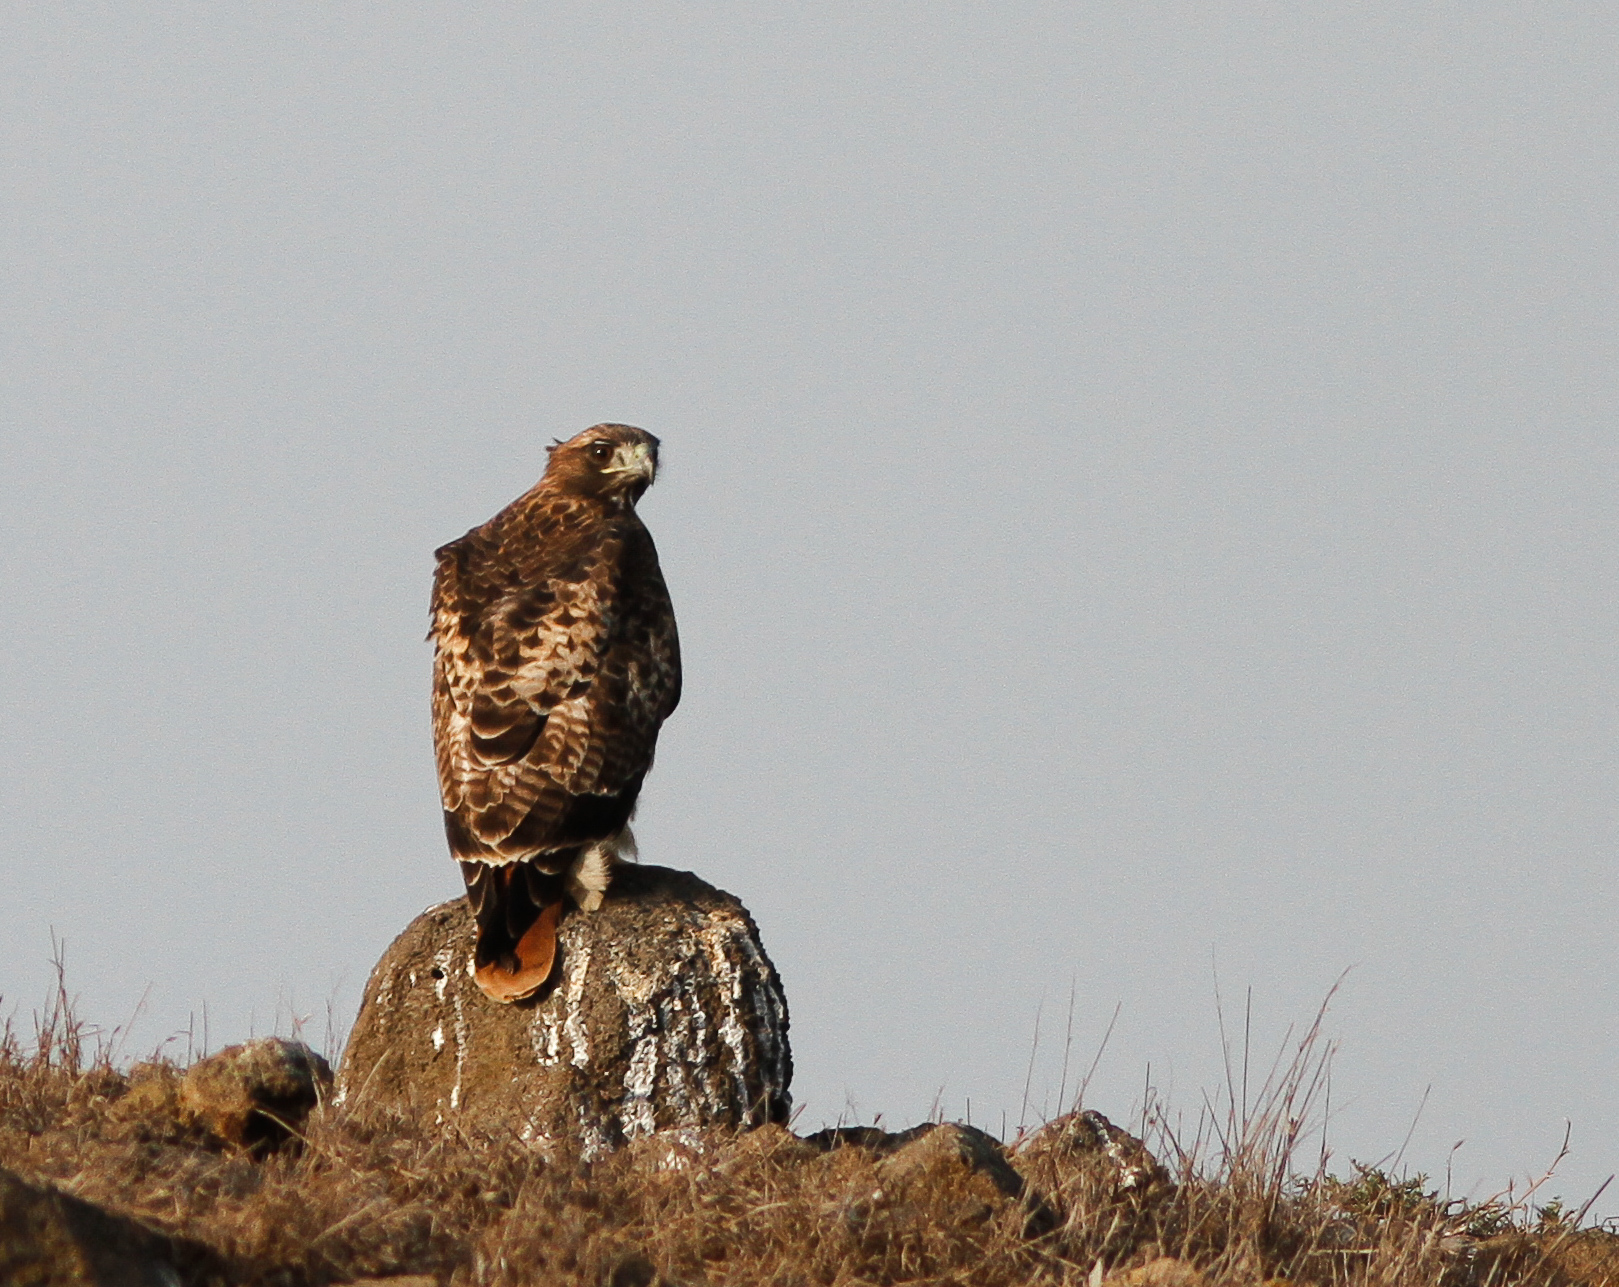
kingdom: Animalia
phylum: Chordata
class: Aves
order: Accipitriformes
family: Accipitridae
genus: Buteo
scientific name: Buteo jamaicensis
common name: Red-tailed hawk
